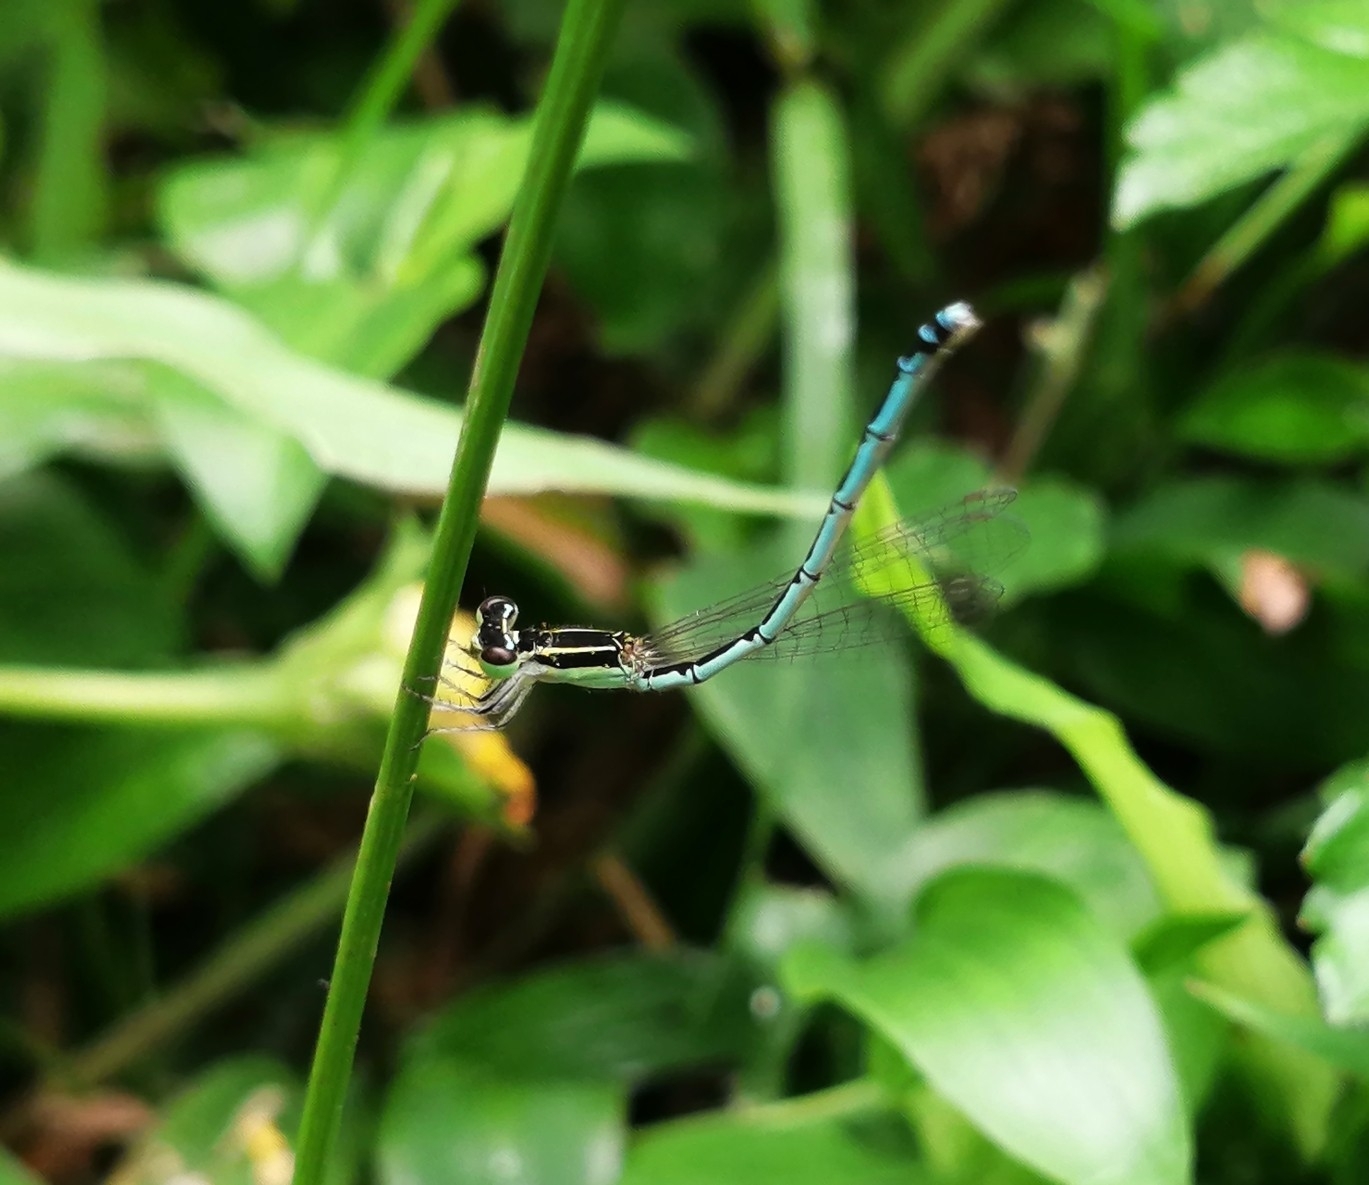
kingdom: Animalia
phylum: Arthropoda
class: Insecta
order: Odonata
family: Coenagrionidae
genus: Agriocnemis
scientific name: Agriocnemis pieris
